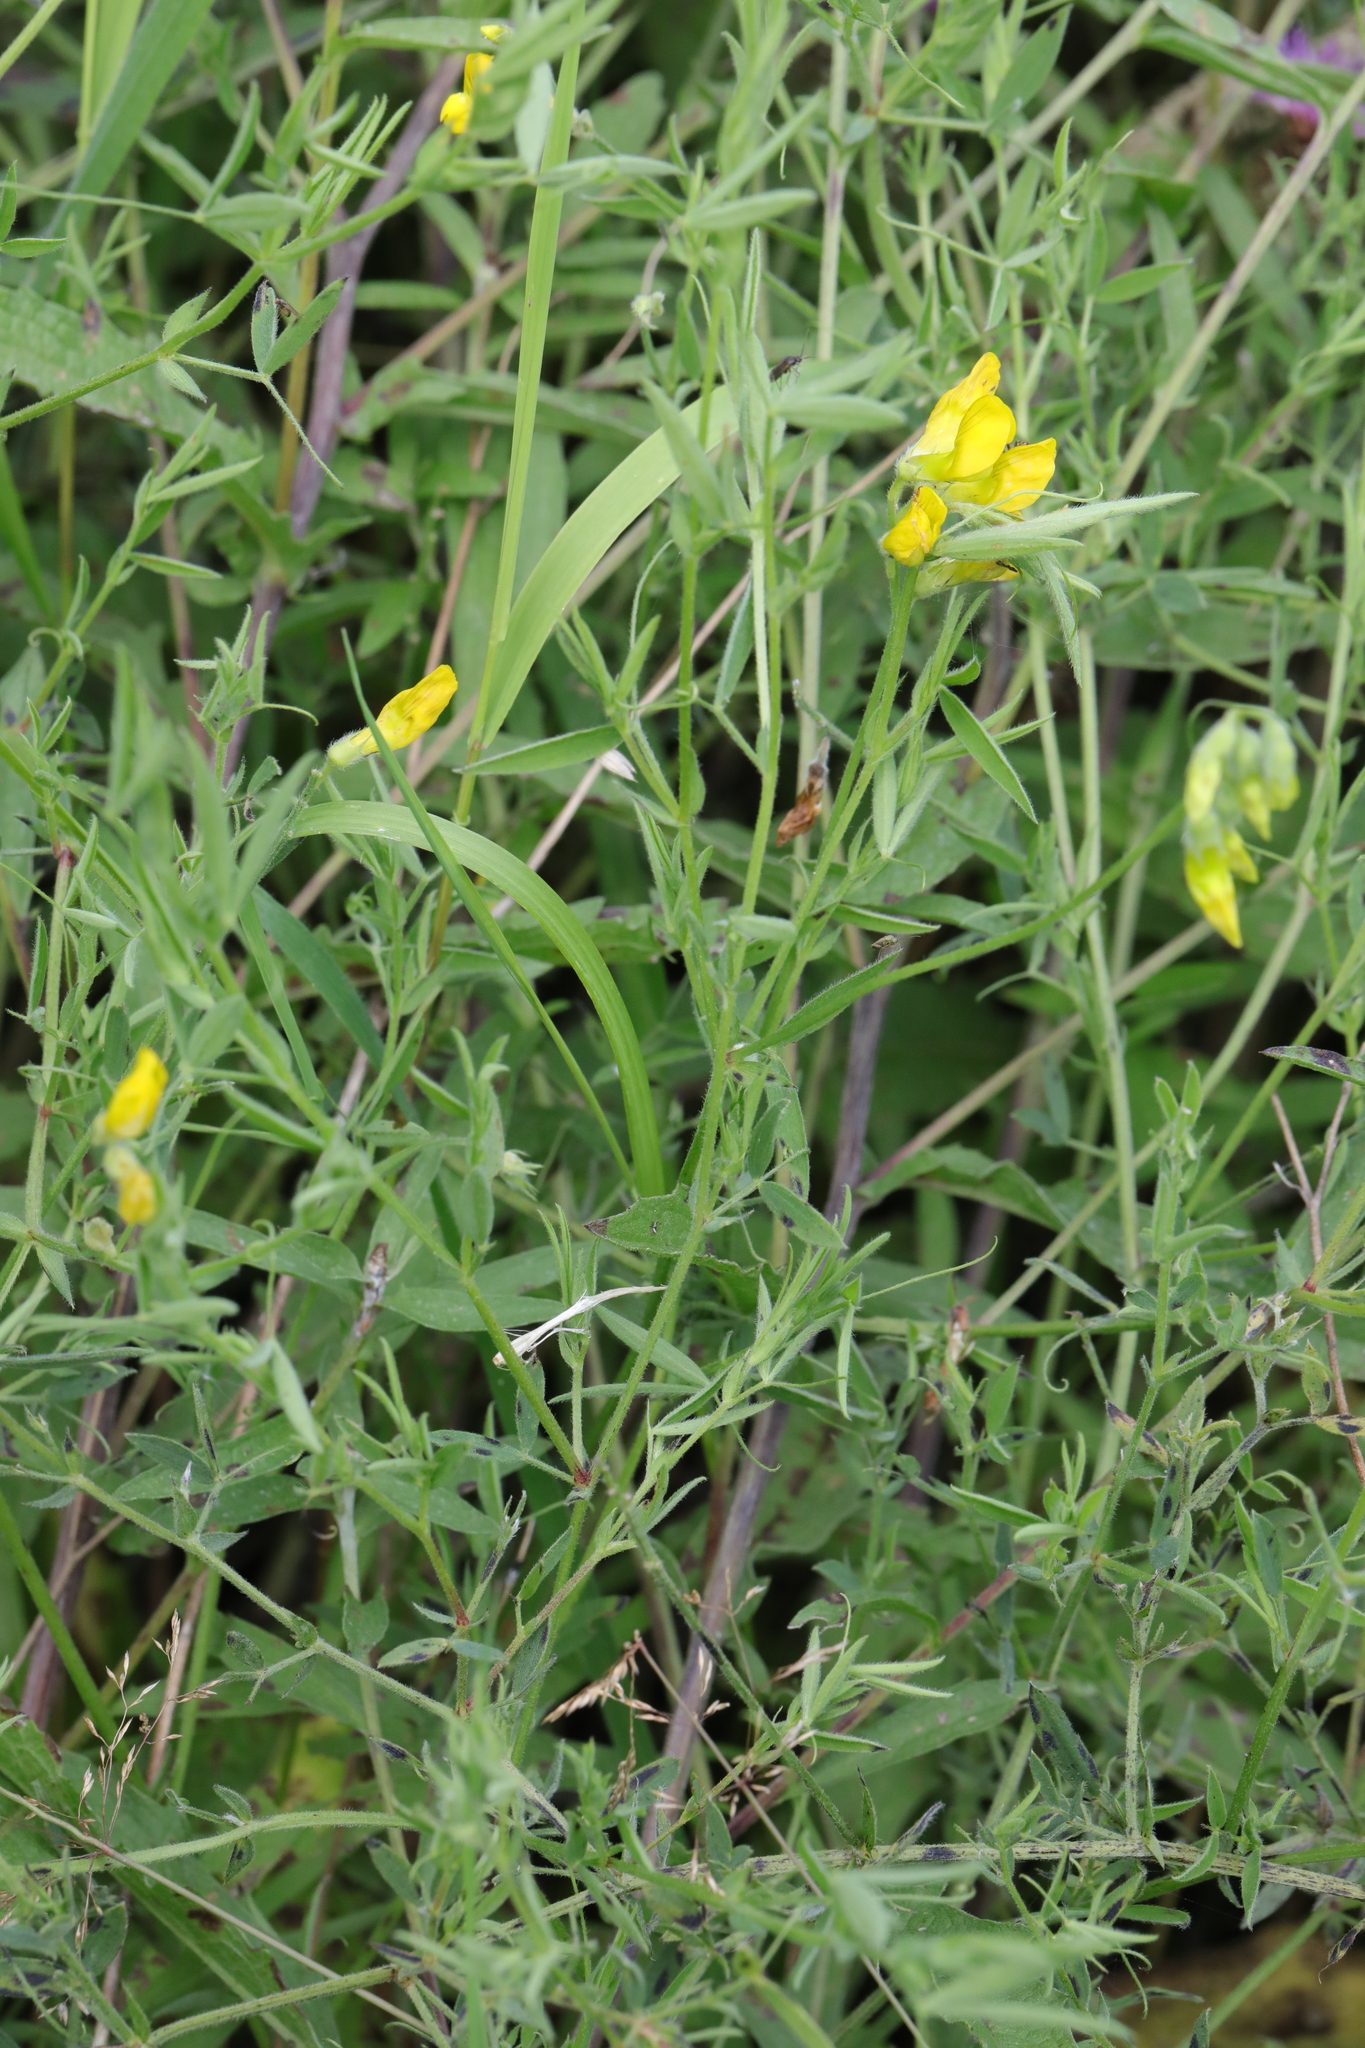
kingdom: Plantae
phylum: Tracheophyta
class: Magnoliopsida
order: Fabales
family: Fabaceae
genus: Lathyrus
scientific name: Lathyrus pratensis
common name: Meadow vetchling
